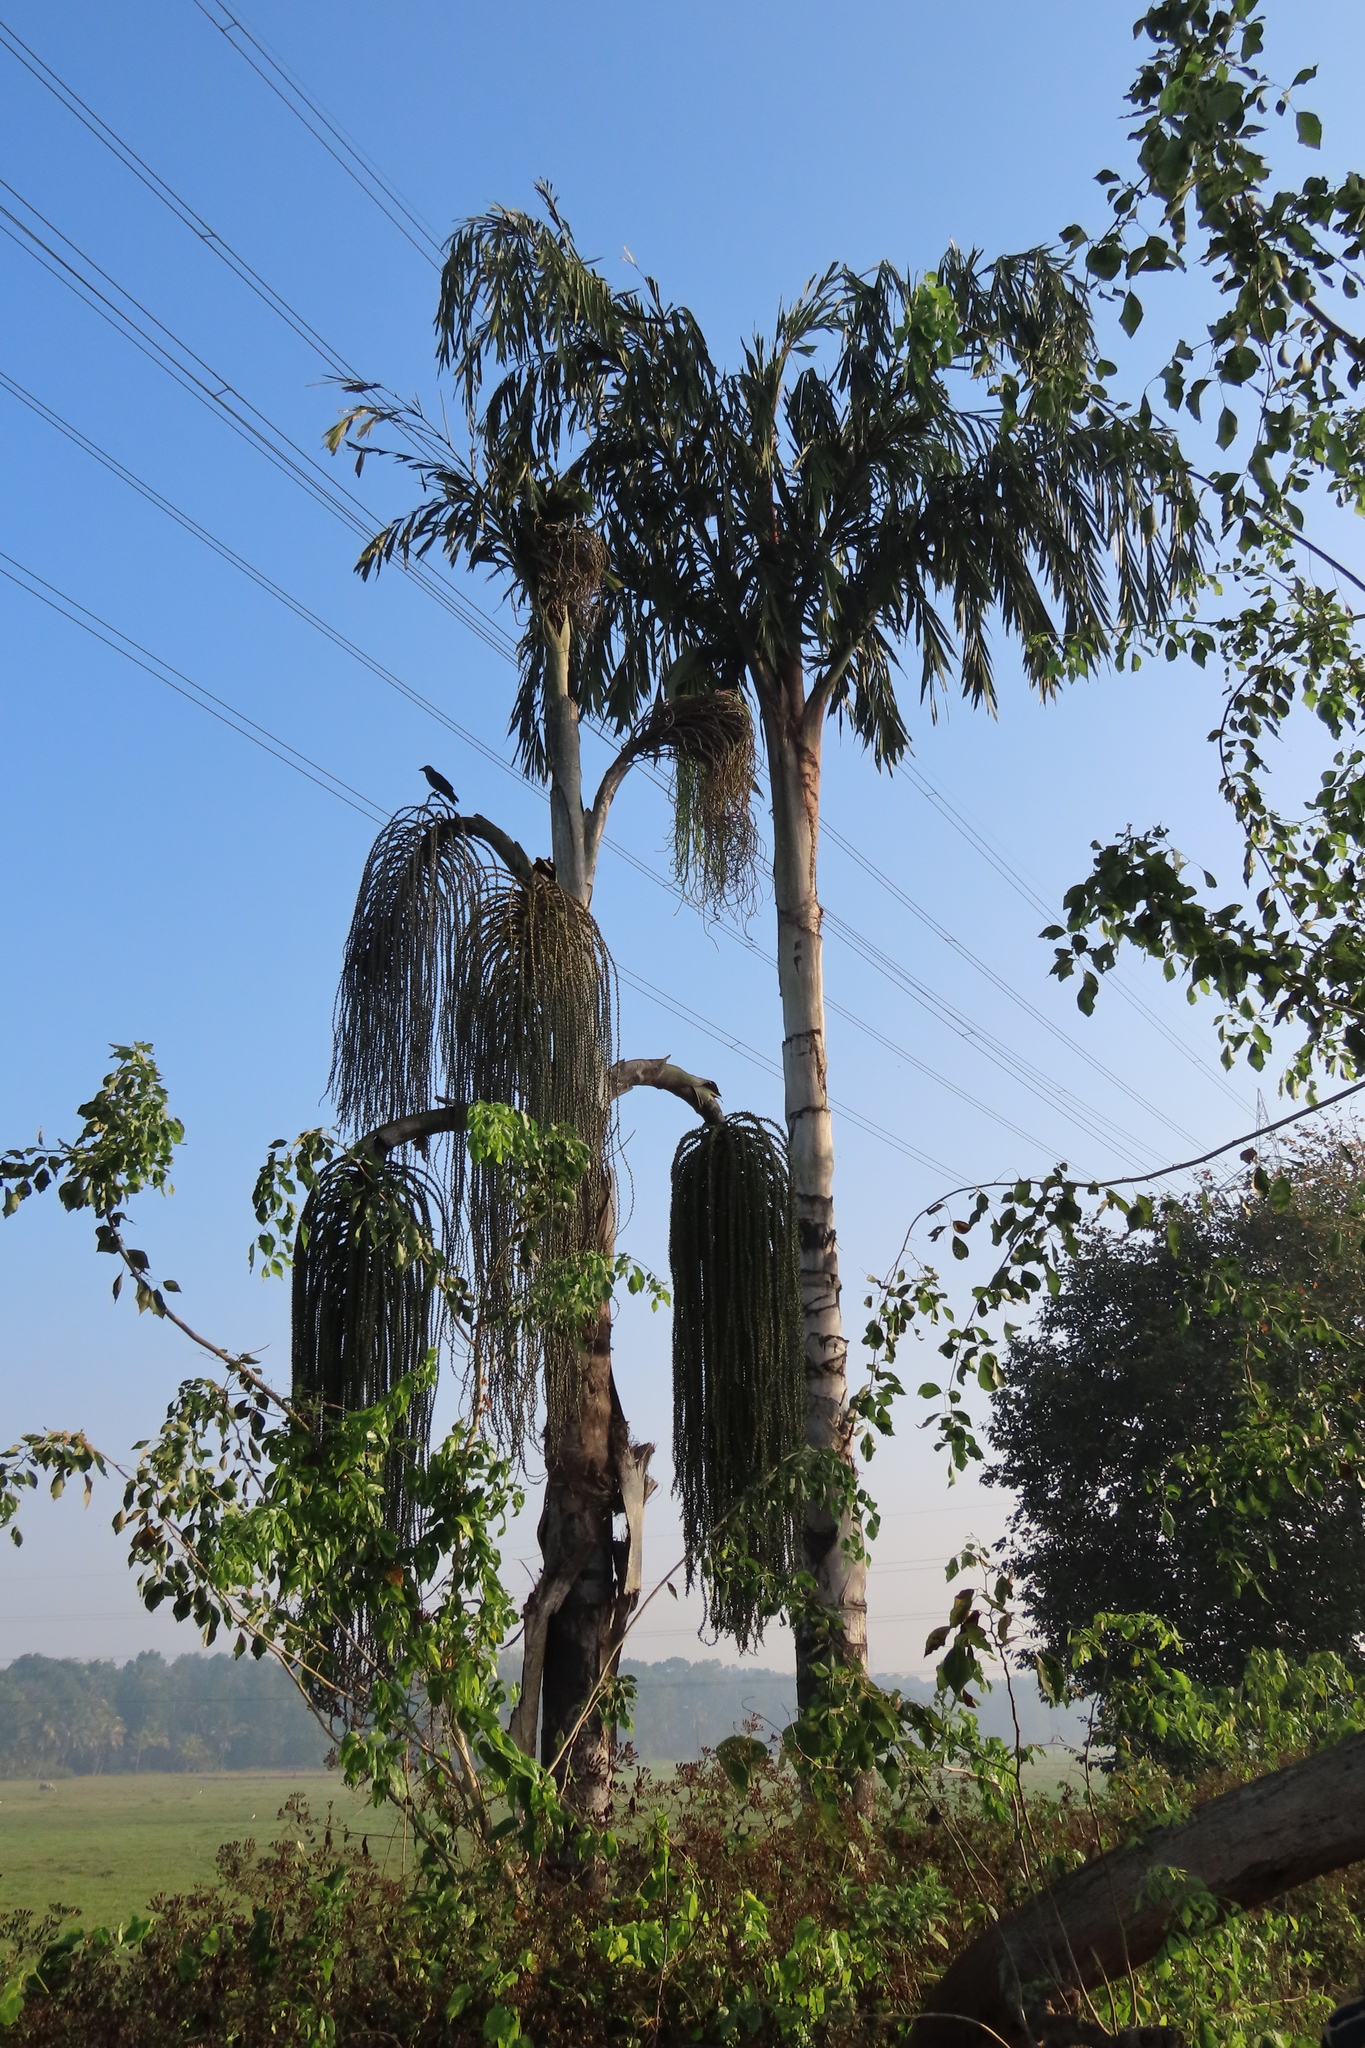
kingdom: Plantae
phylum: Tracheophyta
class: Liliopsida
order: Arecales
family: Arecaceae
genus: Caryota
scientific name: Caryota urens
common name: Jaggery palm
